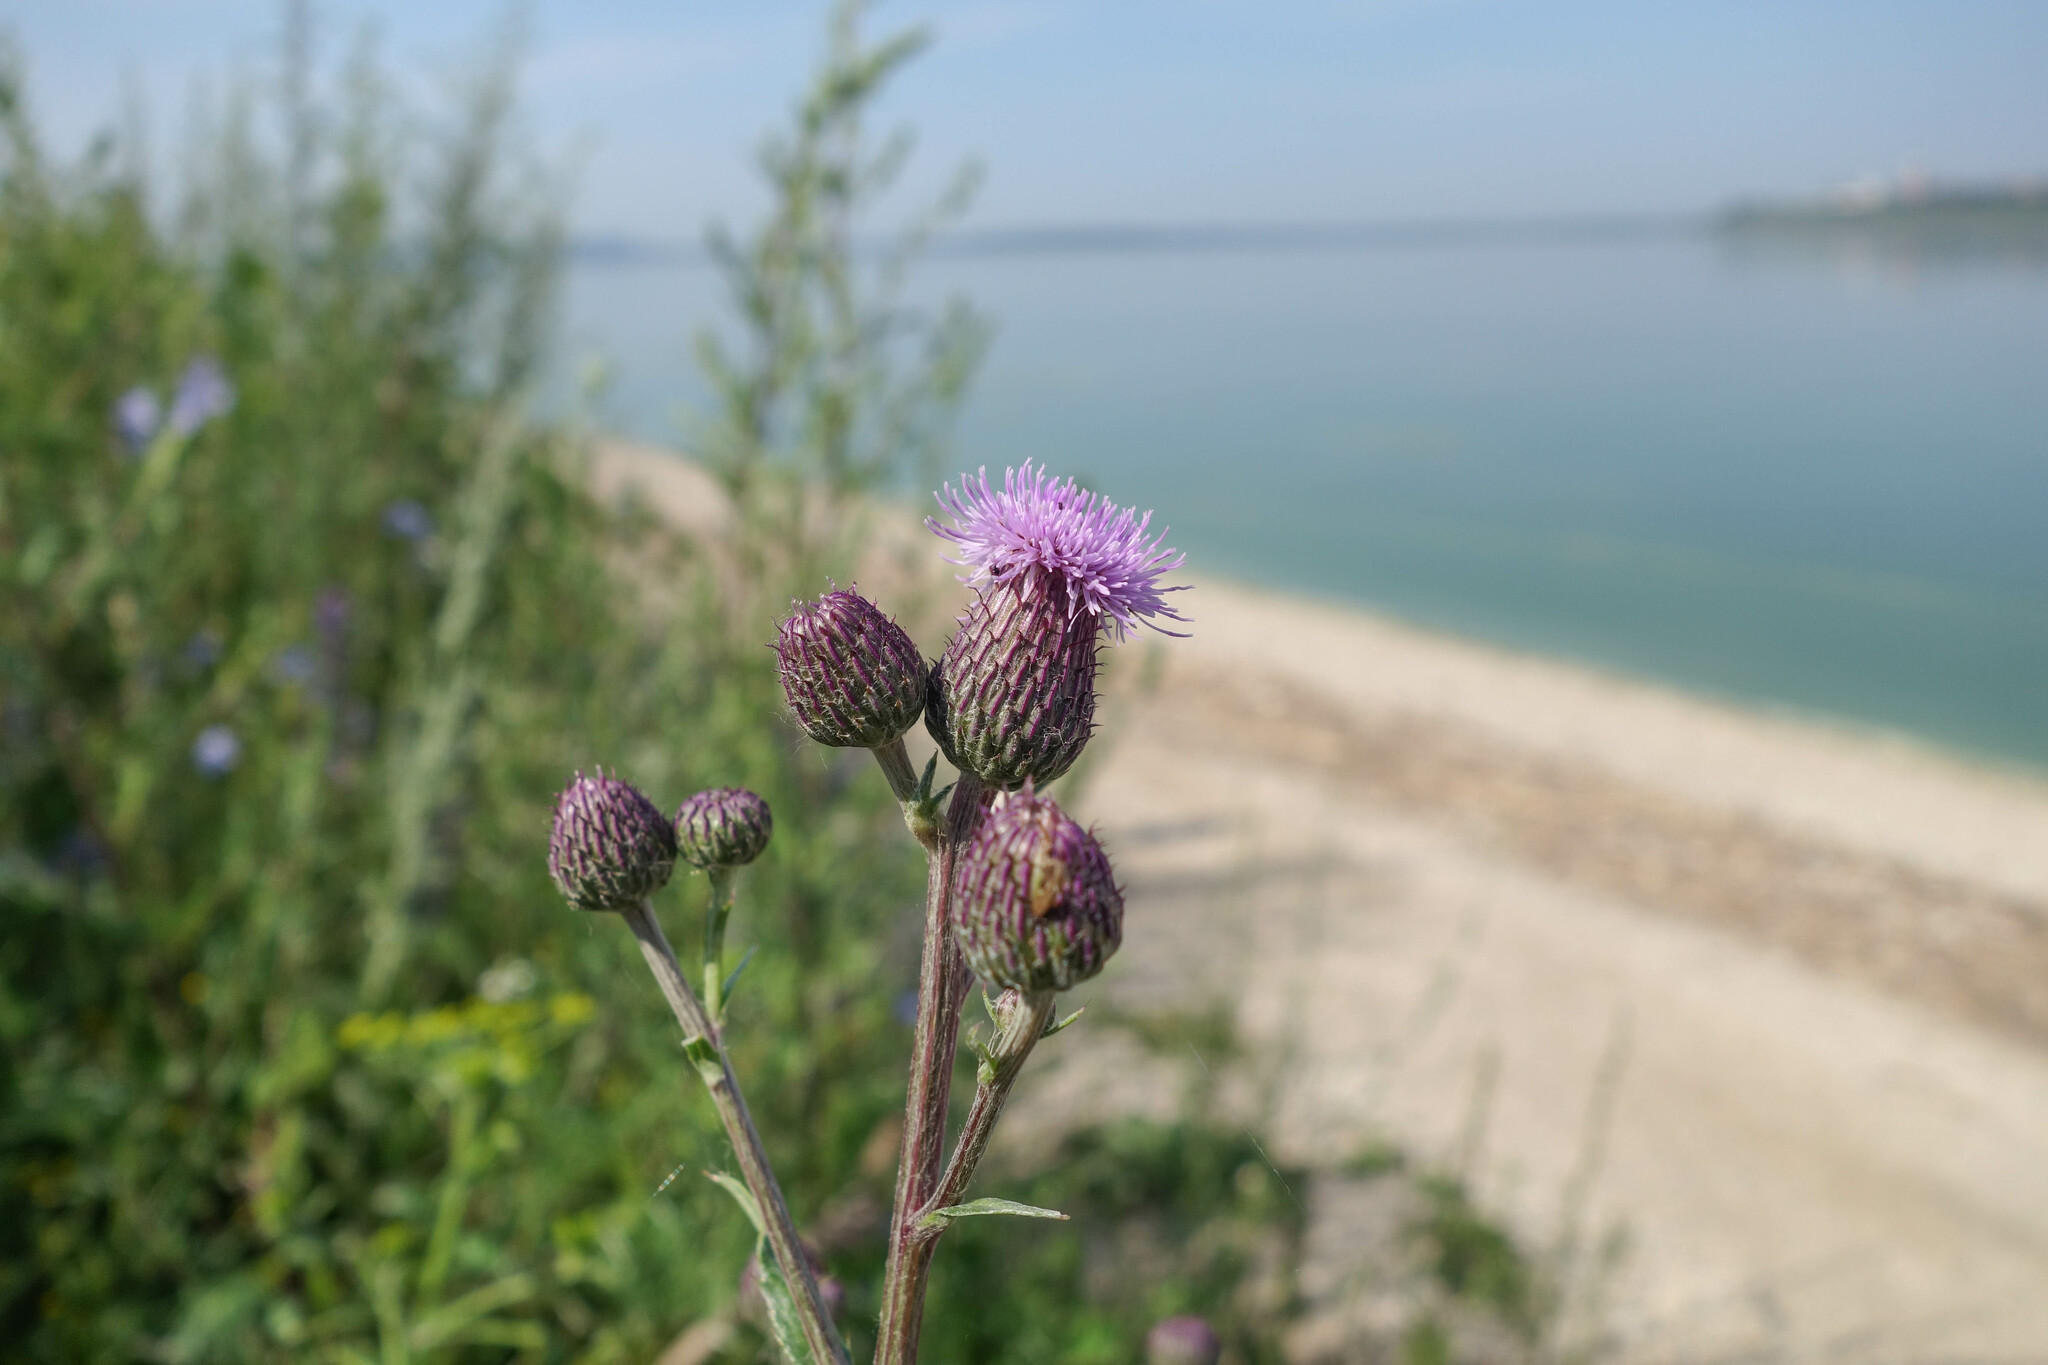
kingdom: Plantae
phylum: Tracheophyta
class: Magnoliopsida
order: Asterales
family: Asteraceae
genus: Cirsium
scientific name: Cirsium arvense
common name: Creeping thistle
